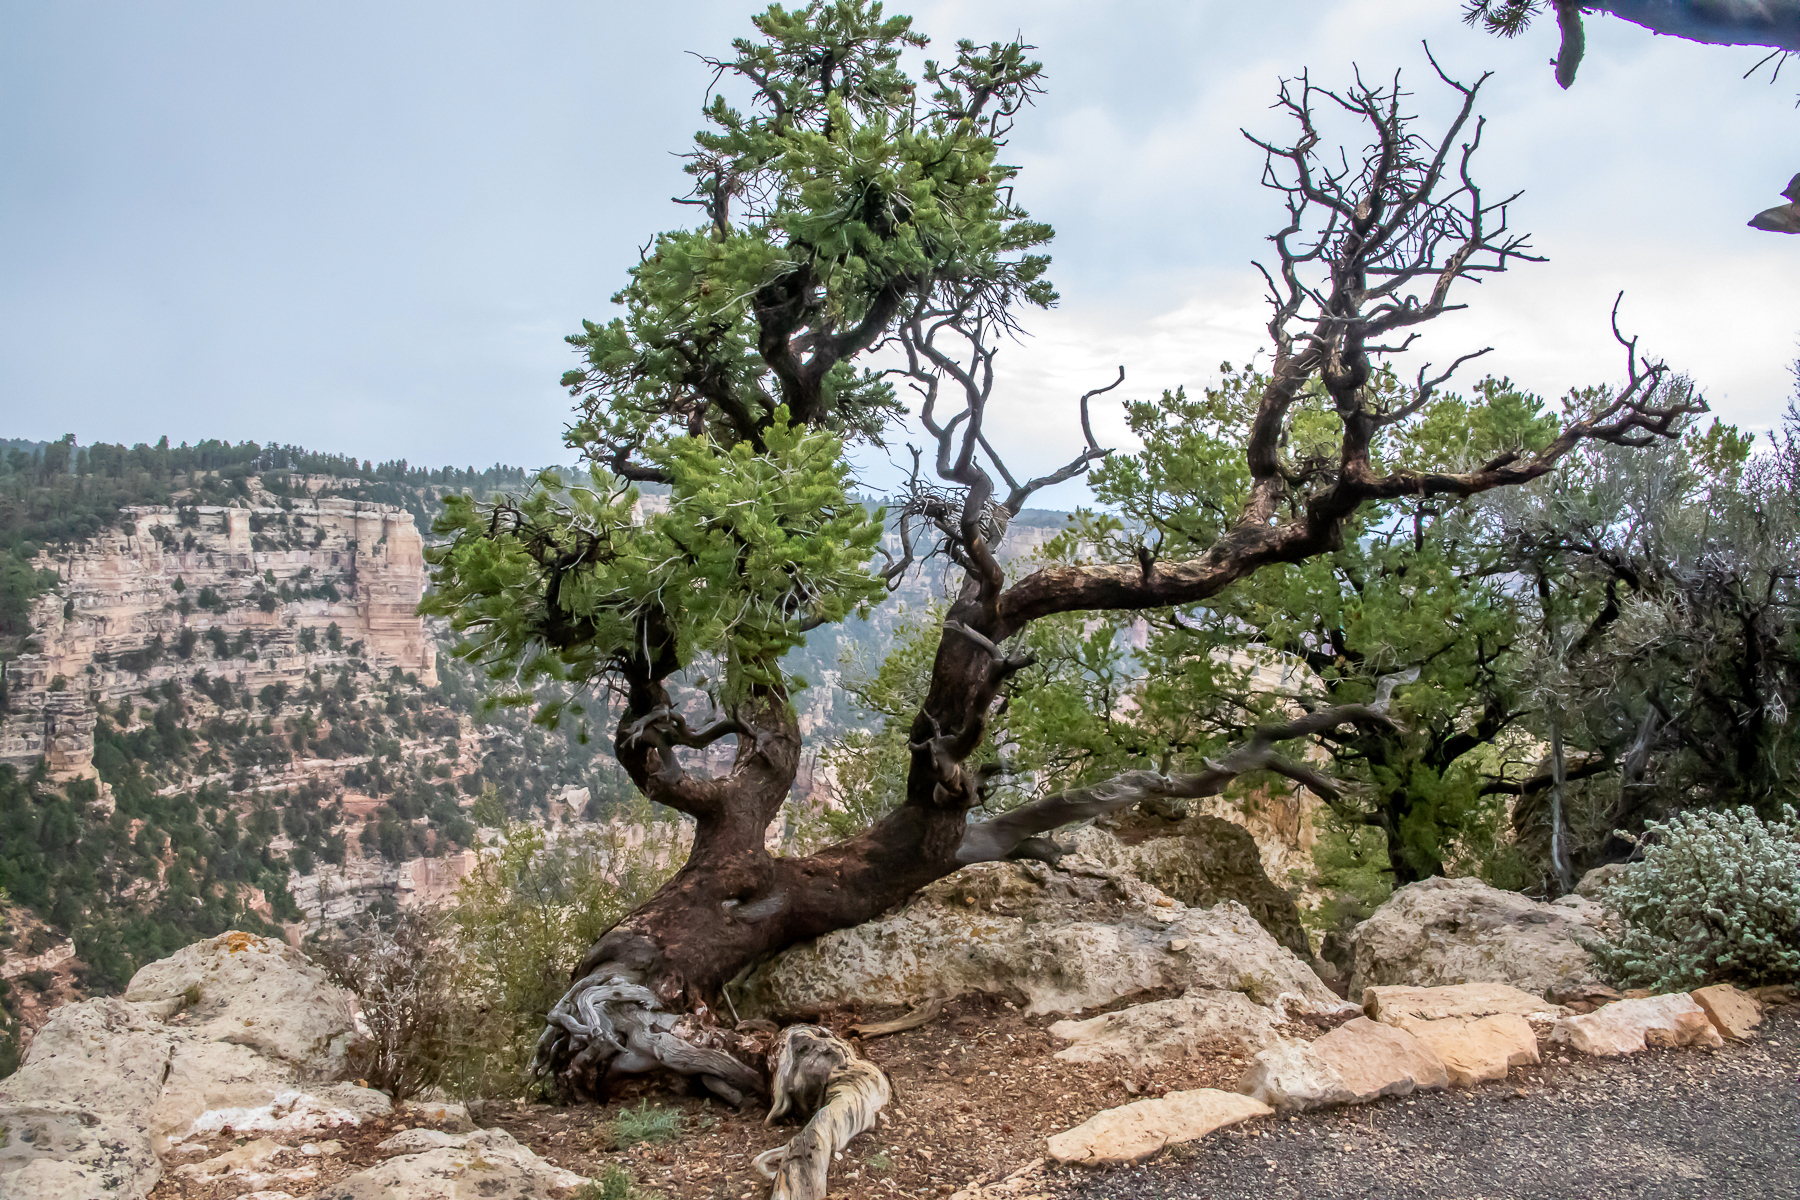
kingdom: Plantae
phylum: Tracheophyta
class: Pinopsida
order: Pinales
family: Pinaceae
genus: Pinus
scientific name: Pinus edulis
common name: Colorado pinyon
